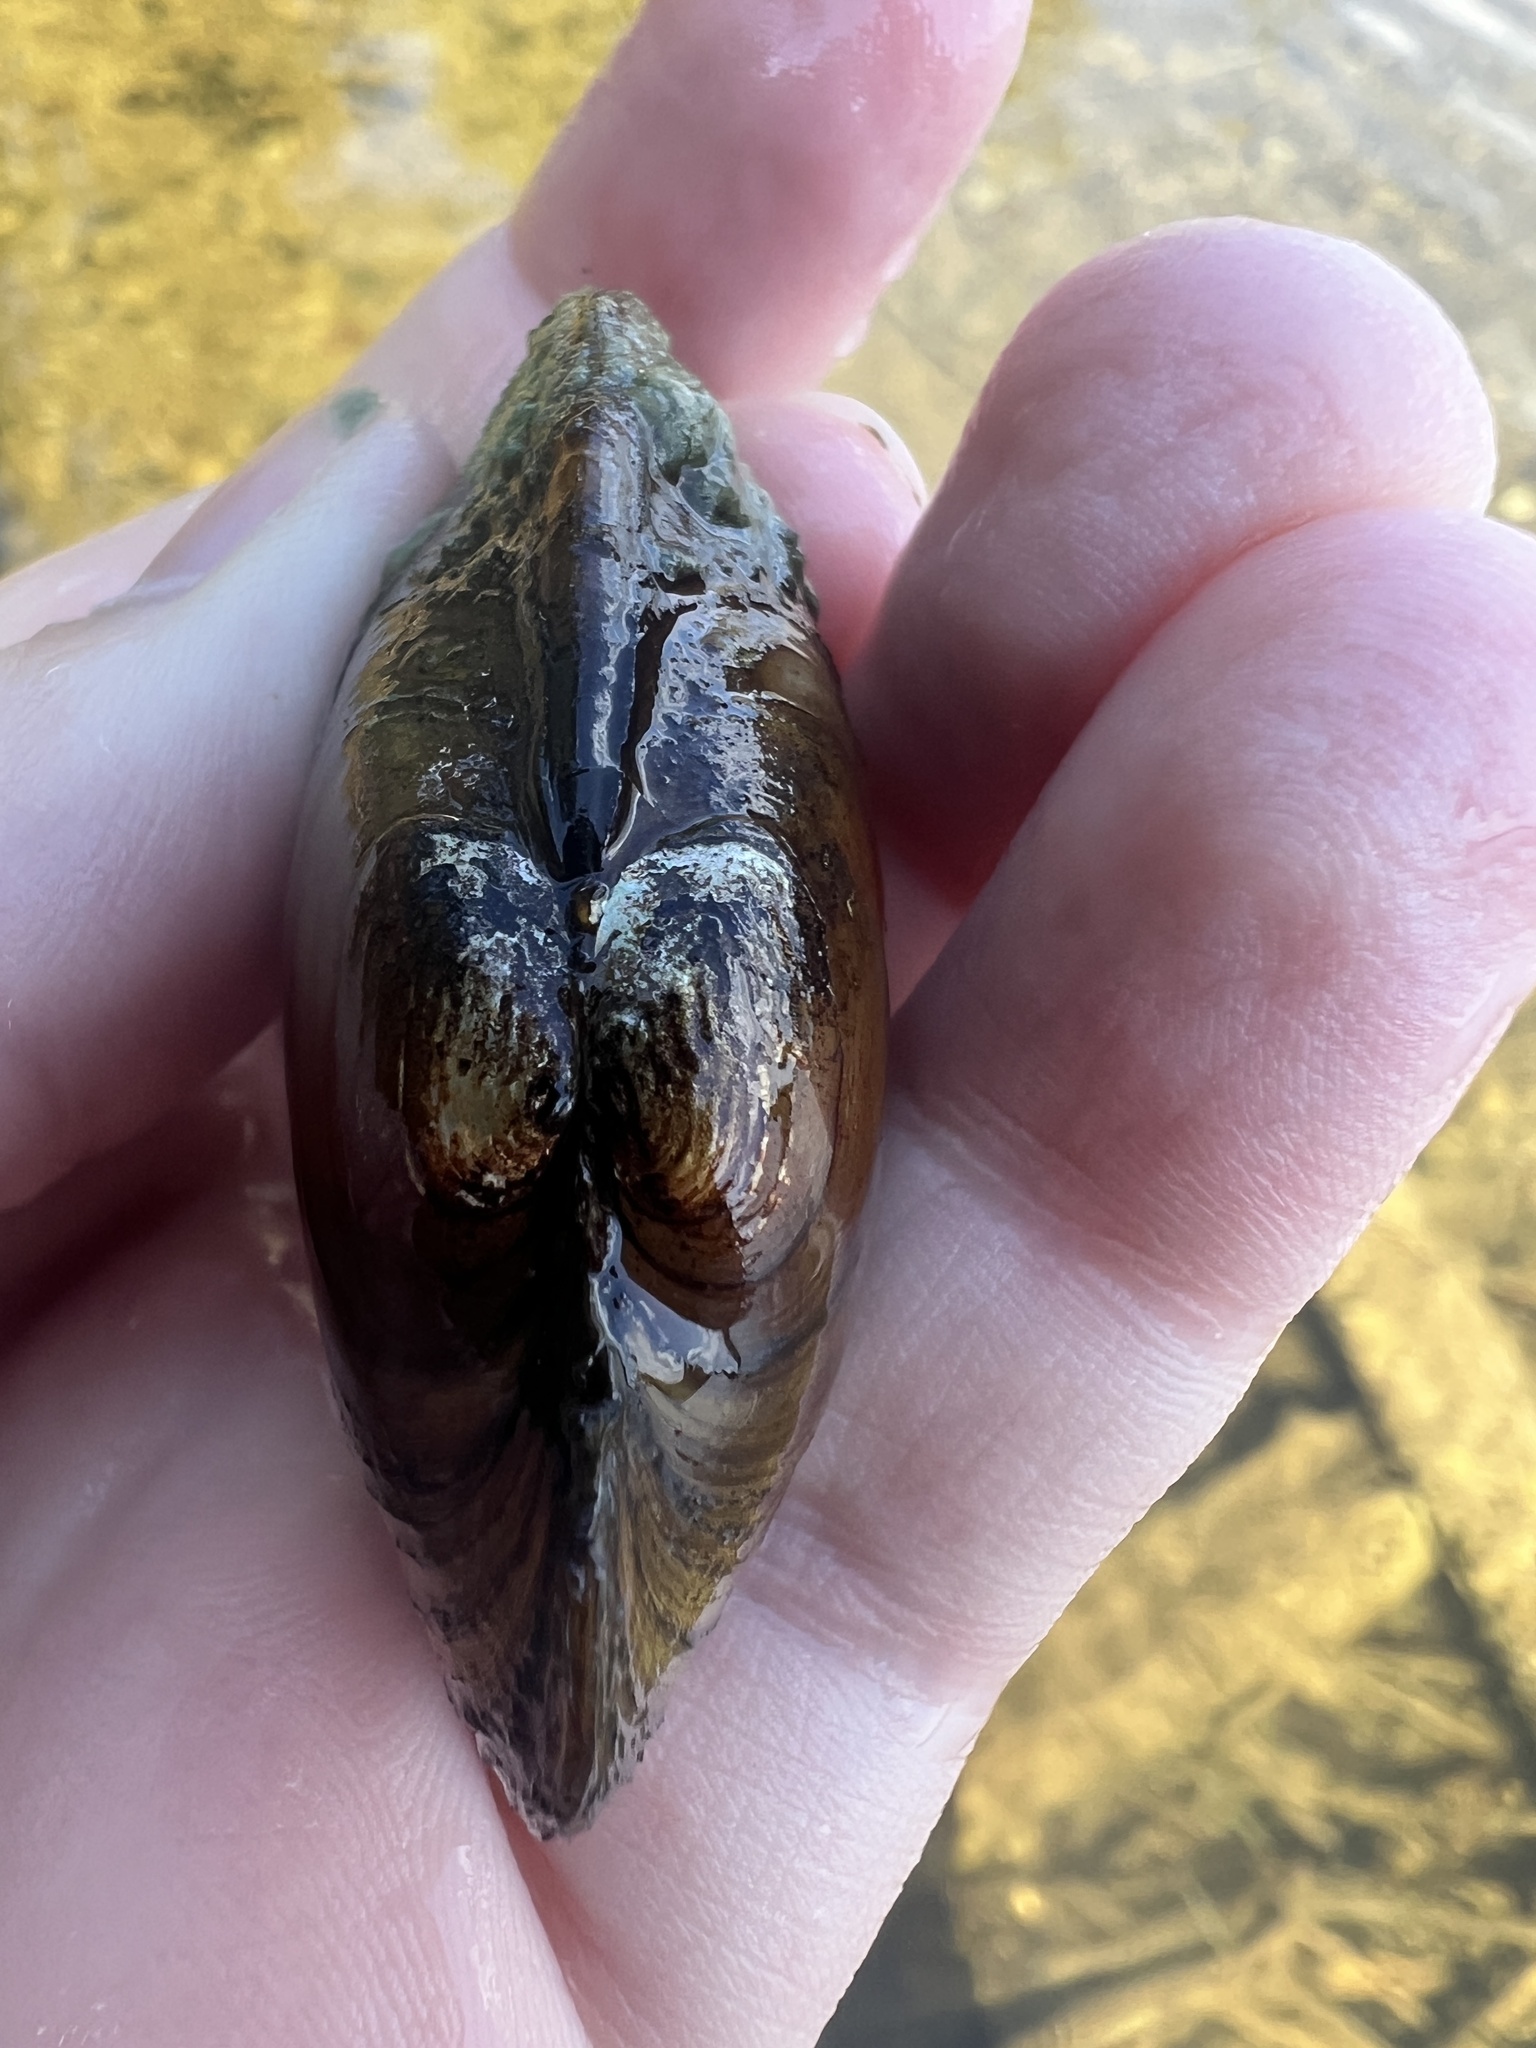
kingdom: Animalia
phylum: Mollusca
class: Bivalvia
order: Unionida
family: Unionidae
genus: Lampsilis
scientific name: Lampsilis siliquoidea
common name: Fatmucket
